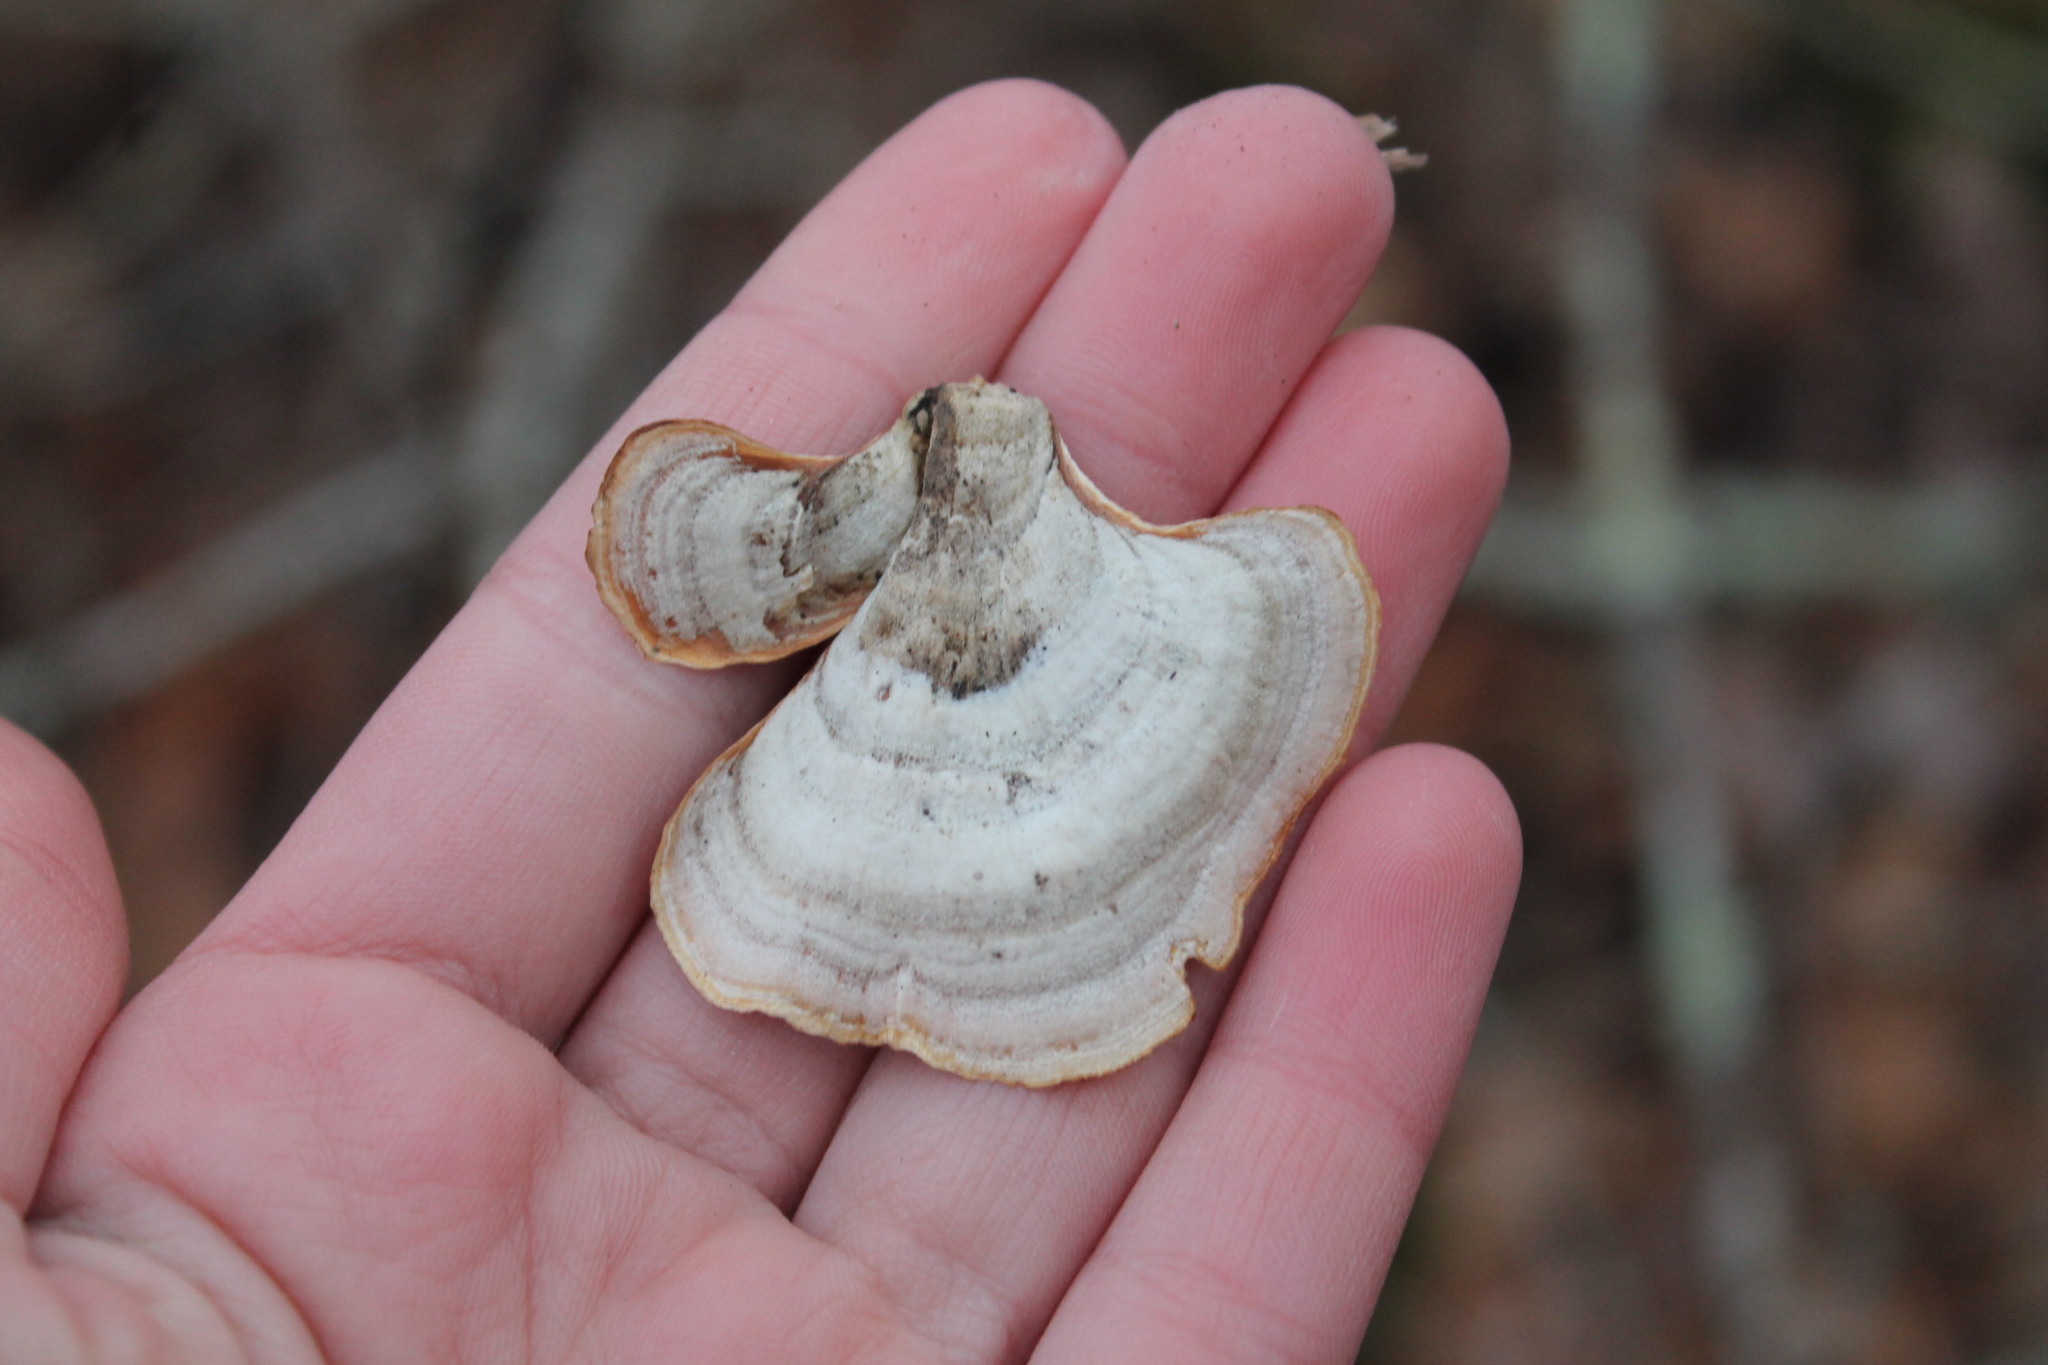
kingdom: Fungi
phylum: Basidiomycota
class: Agaricomycetes
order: Russulales
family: Stereaceae
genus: Stereum
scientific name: Stereum lobatum
